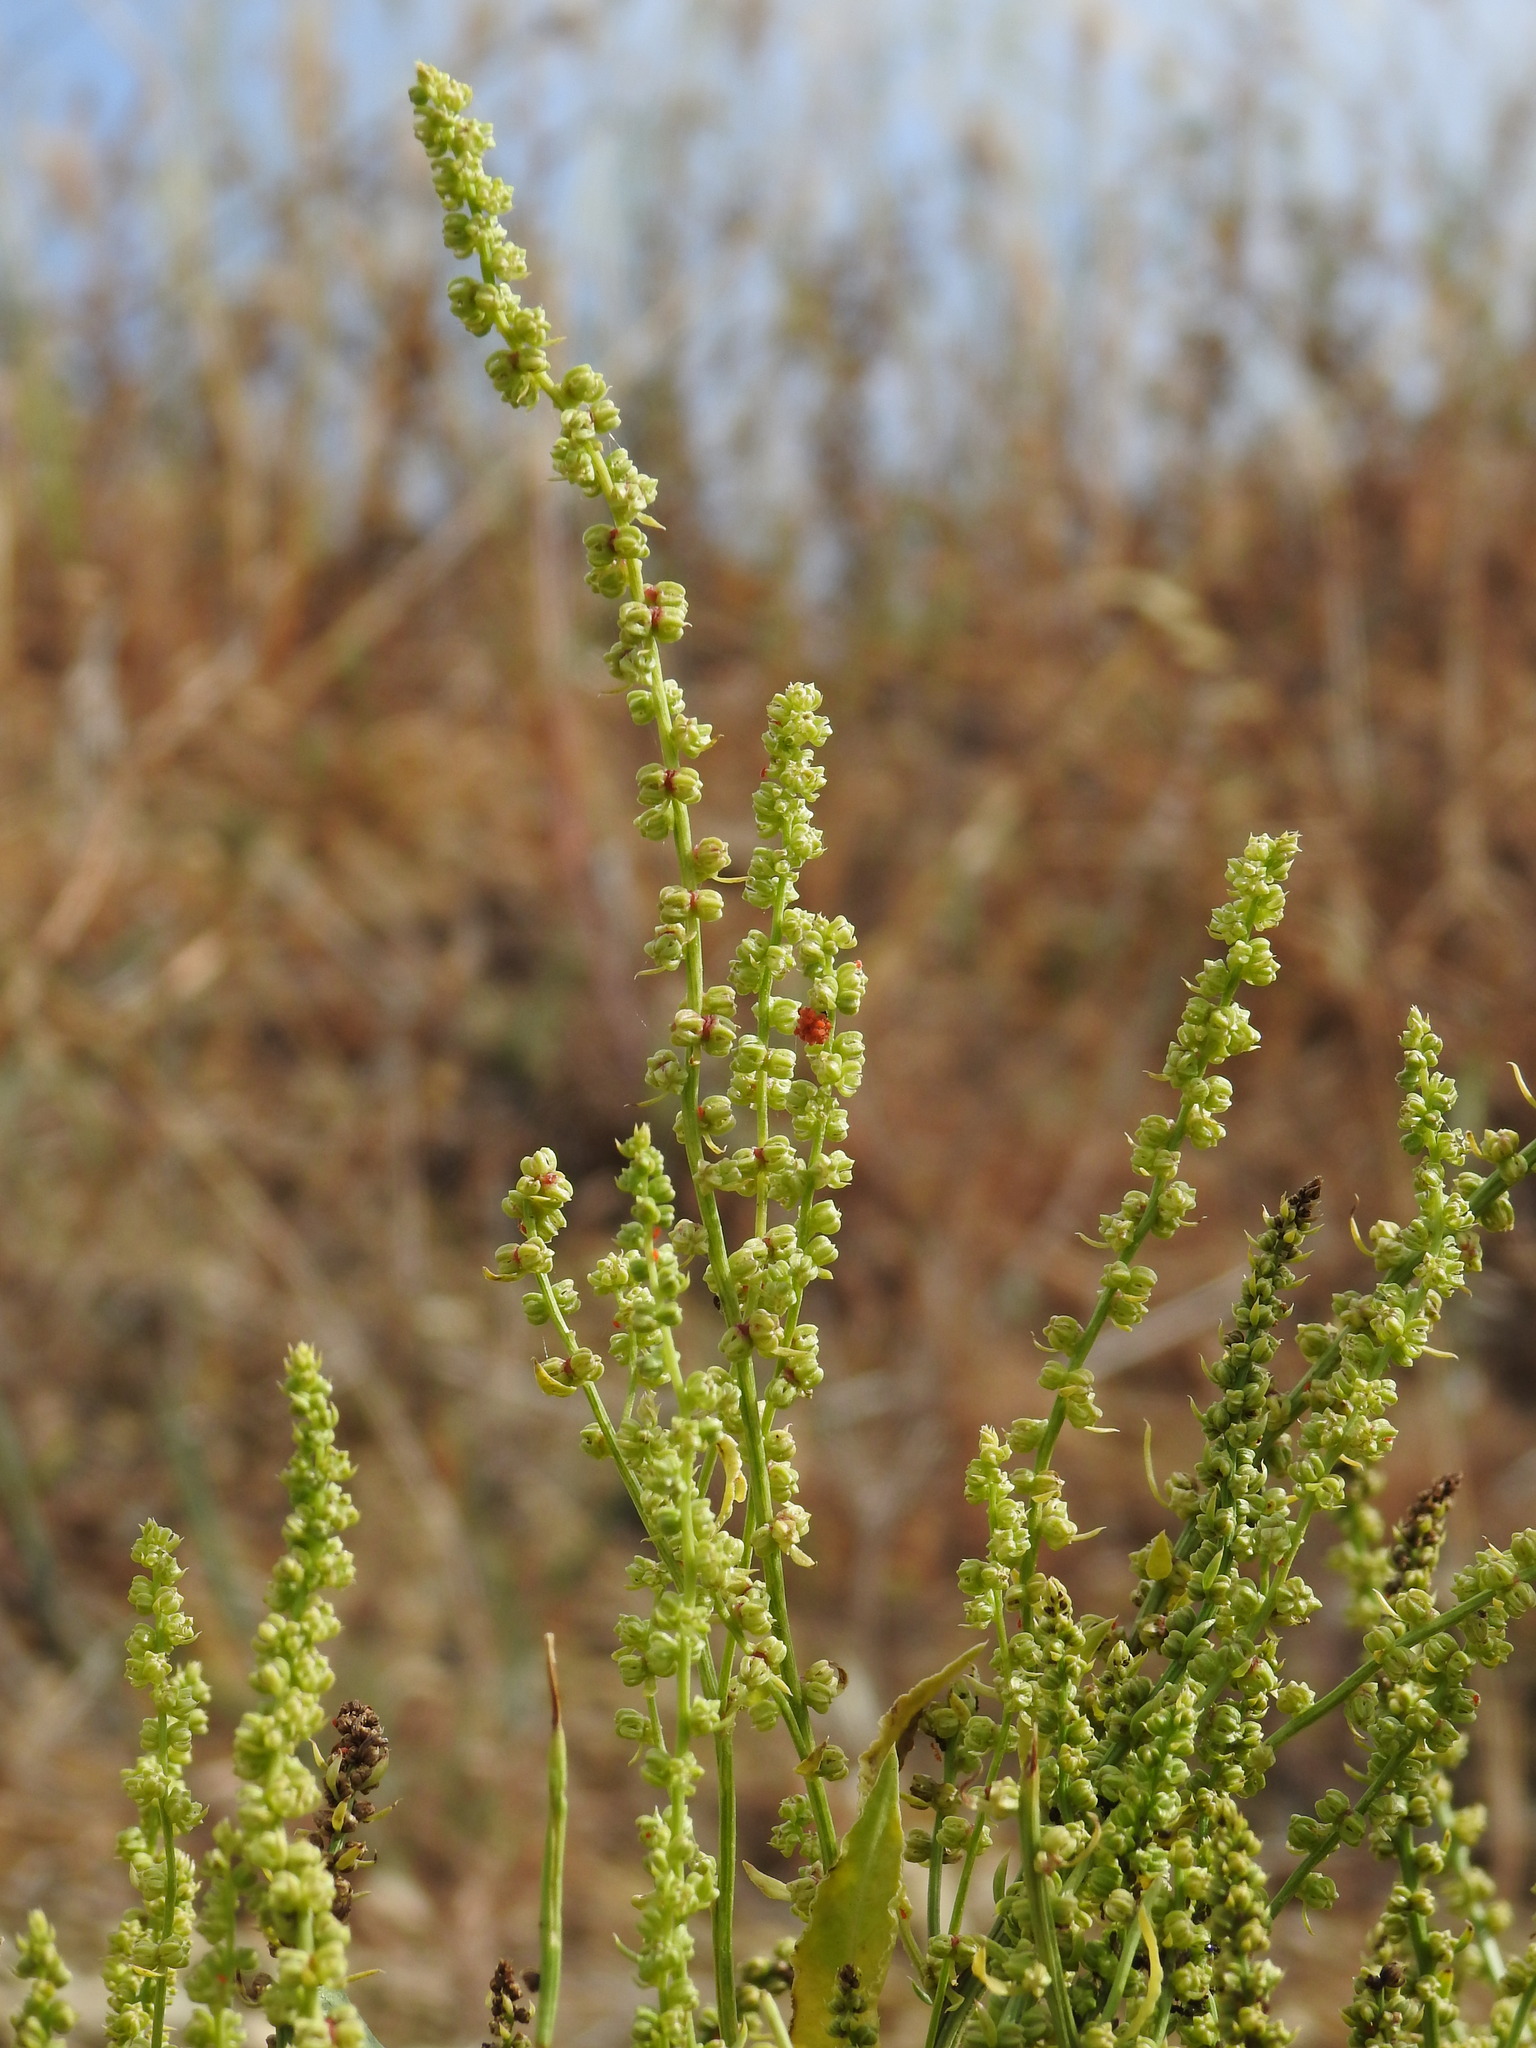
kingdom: Plantae
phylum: Tracheophyta
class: Magnoliopsida
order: Caryophyllales
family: Amaranthaceae
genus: Beta
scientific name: Beta vulgaris
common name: Beet
